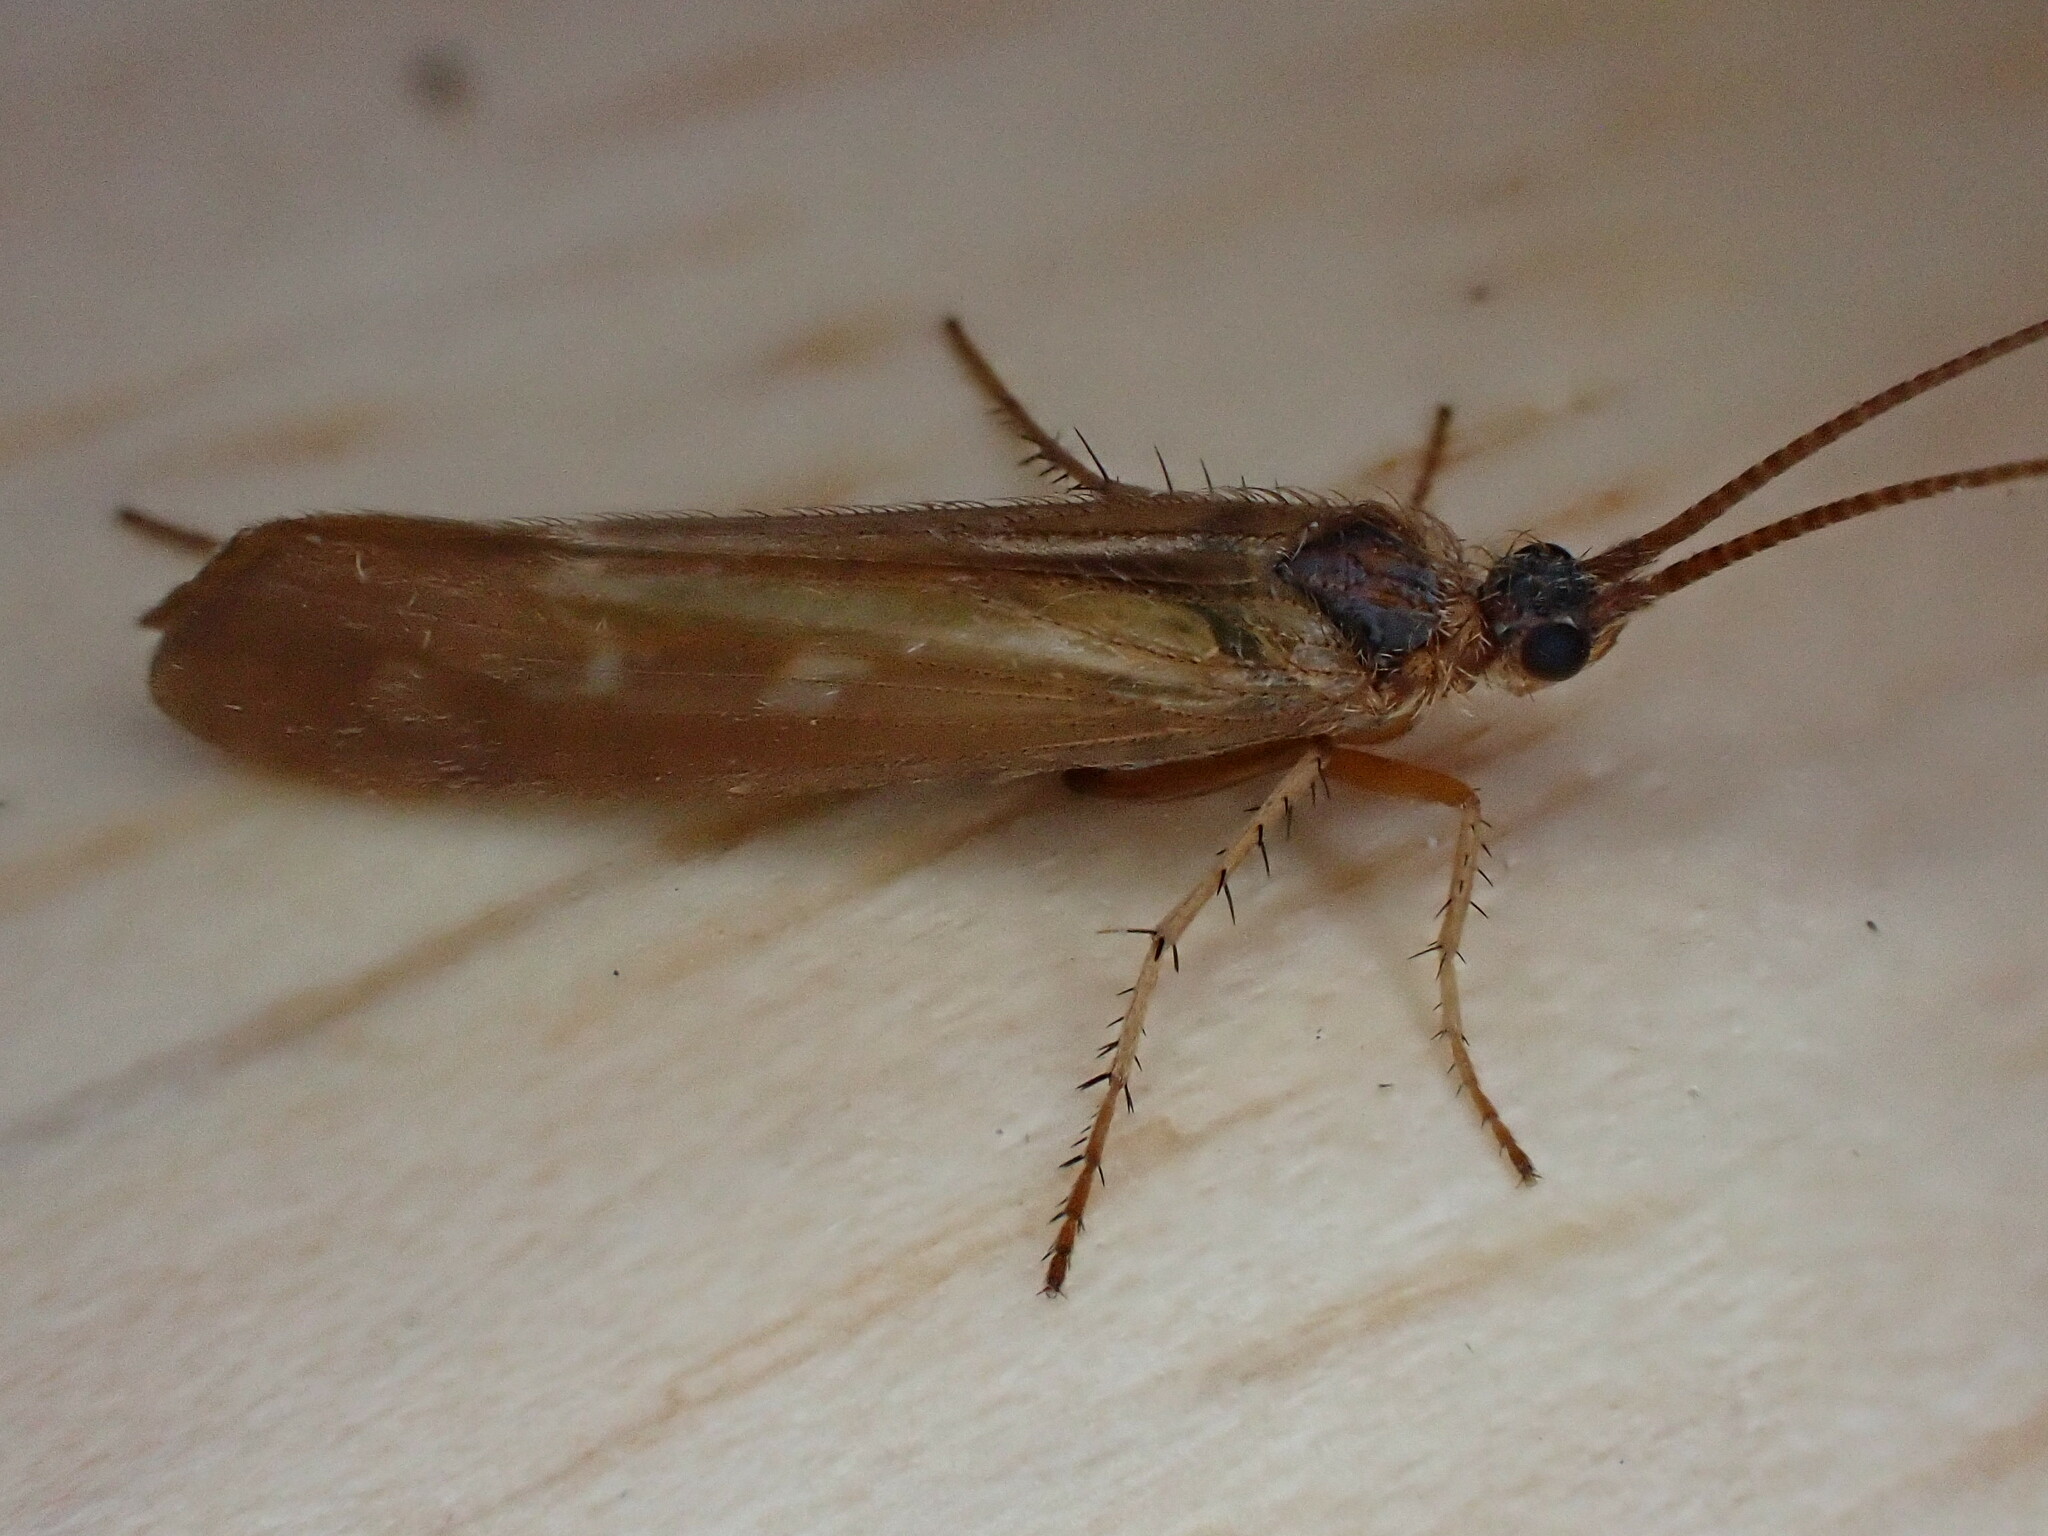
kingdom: Animalia
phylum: Arthropoda
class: Insecta
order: Trichoptera
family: Limnephilidae
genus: Limnephilus
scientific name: Limnephilus auricula
